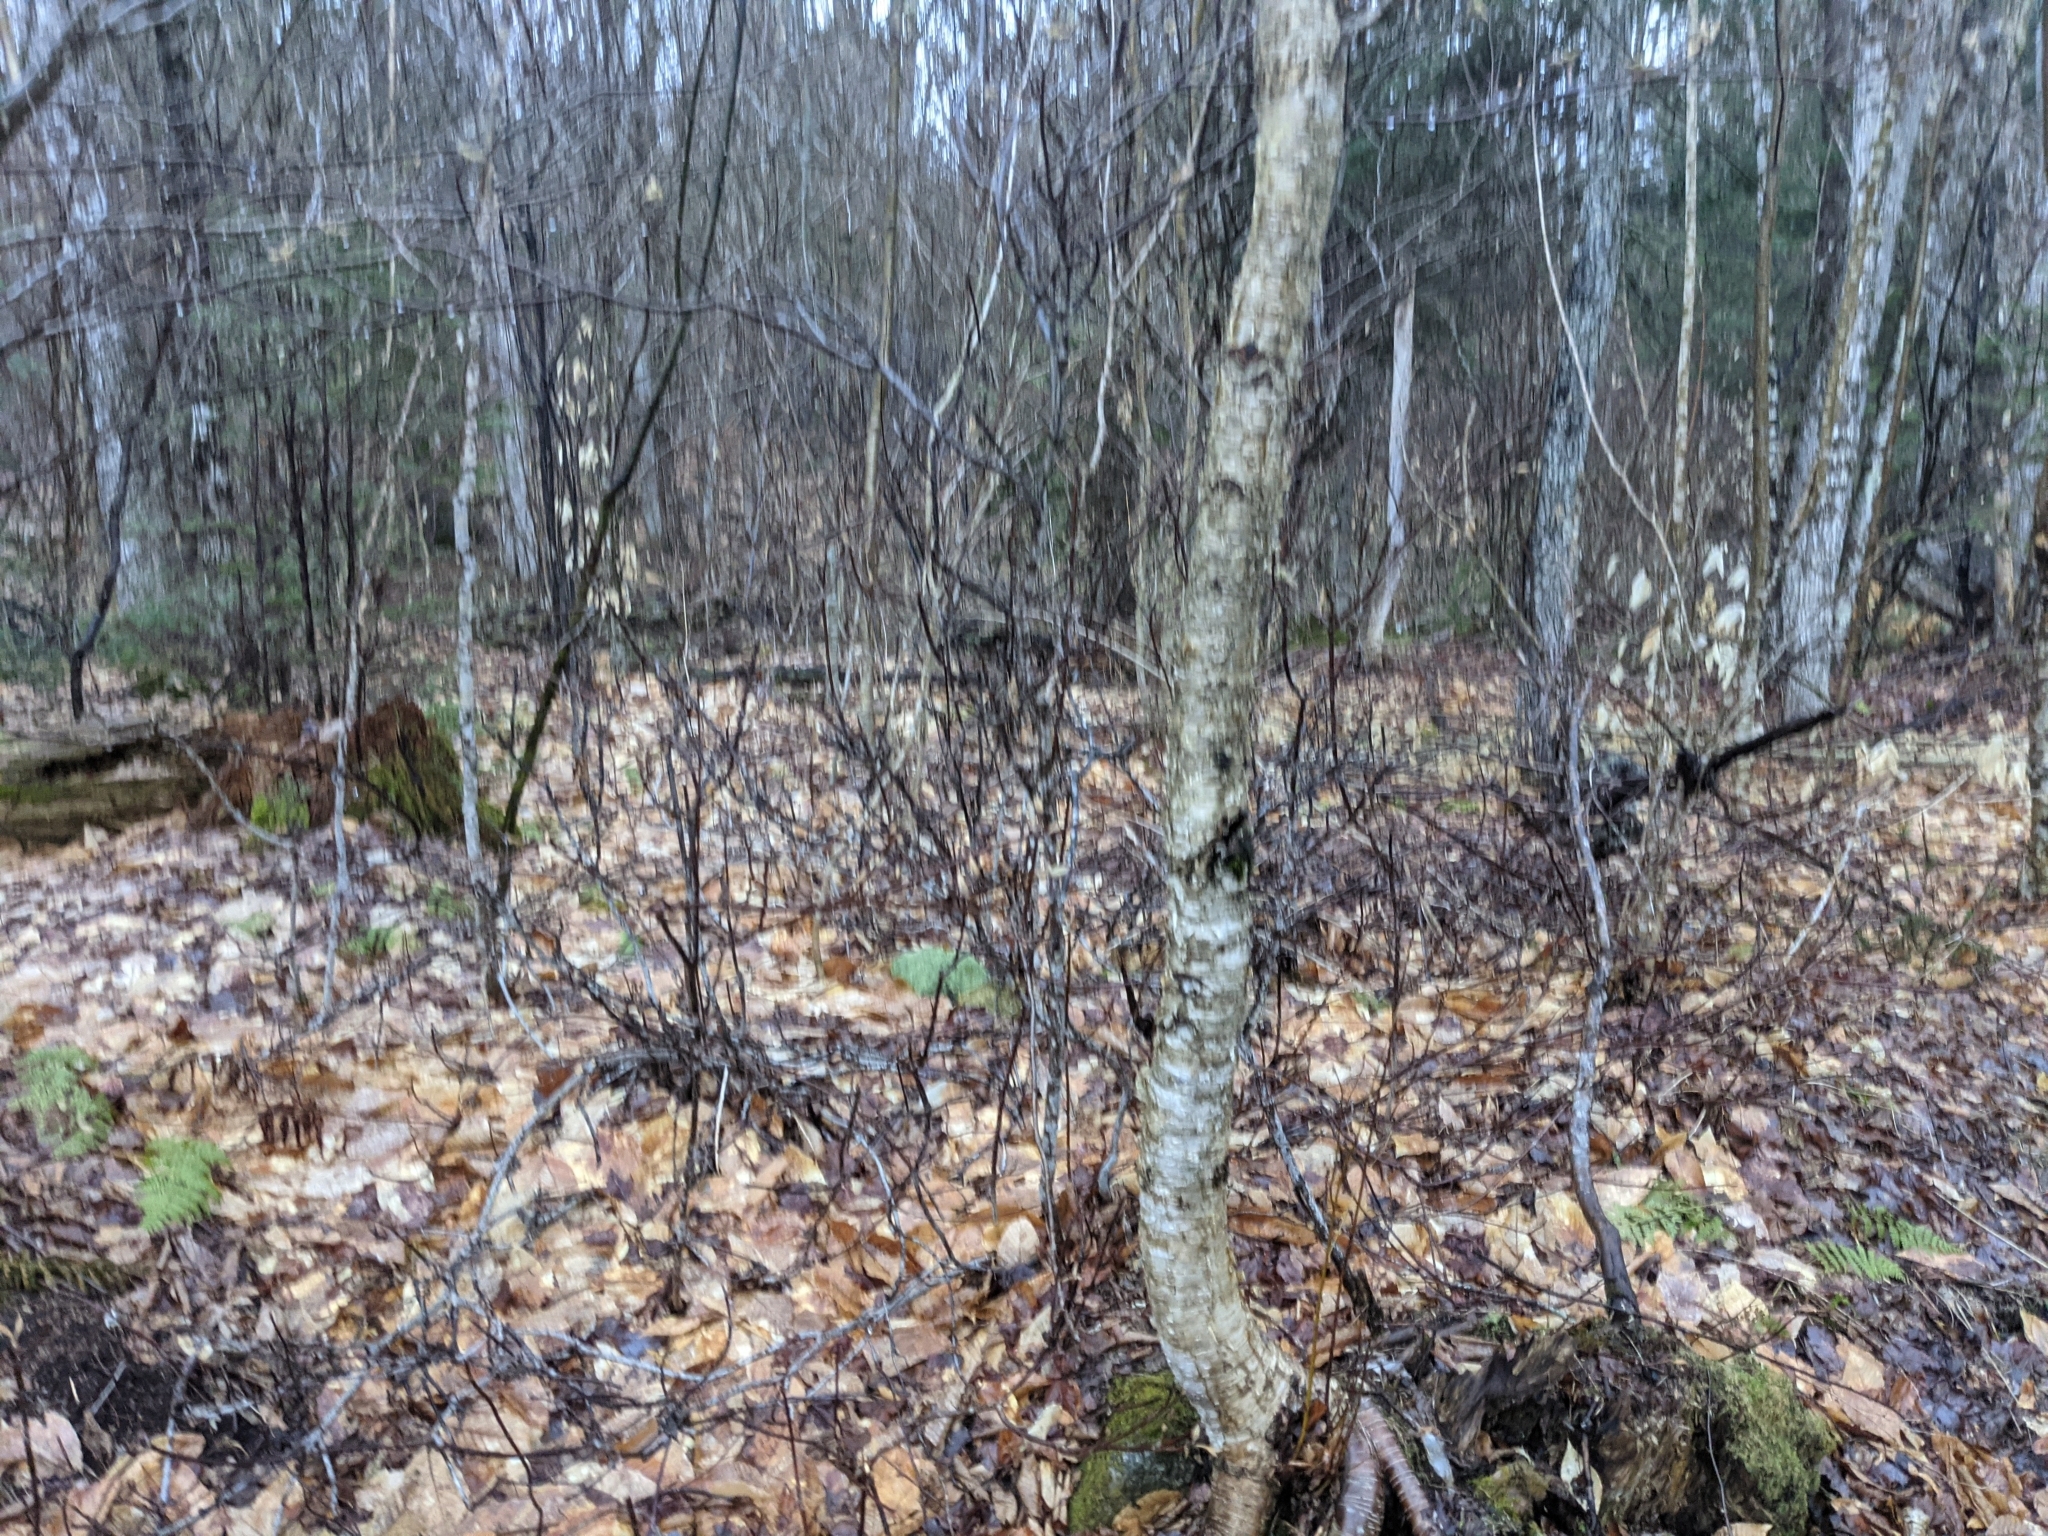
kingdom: Plantae
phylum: Tracheophyta
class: Magnoliopsida
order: Dipsacales
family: Viburnaceae
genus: Viburnum
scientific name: Viburnum lantanoides
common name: Hobblebush
